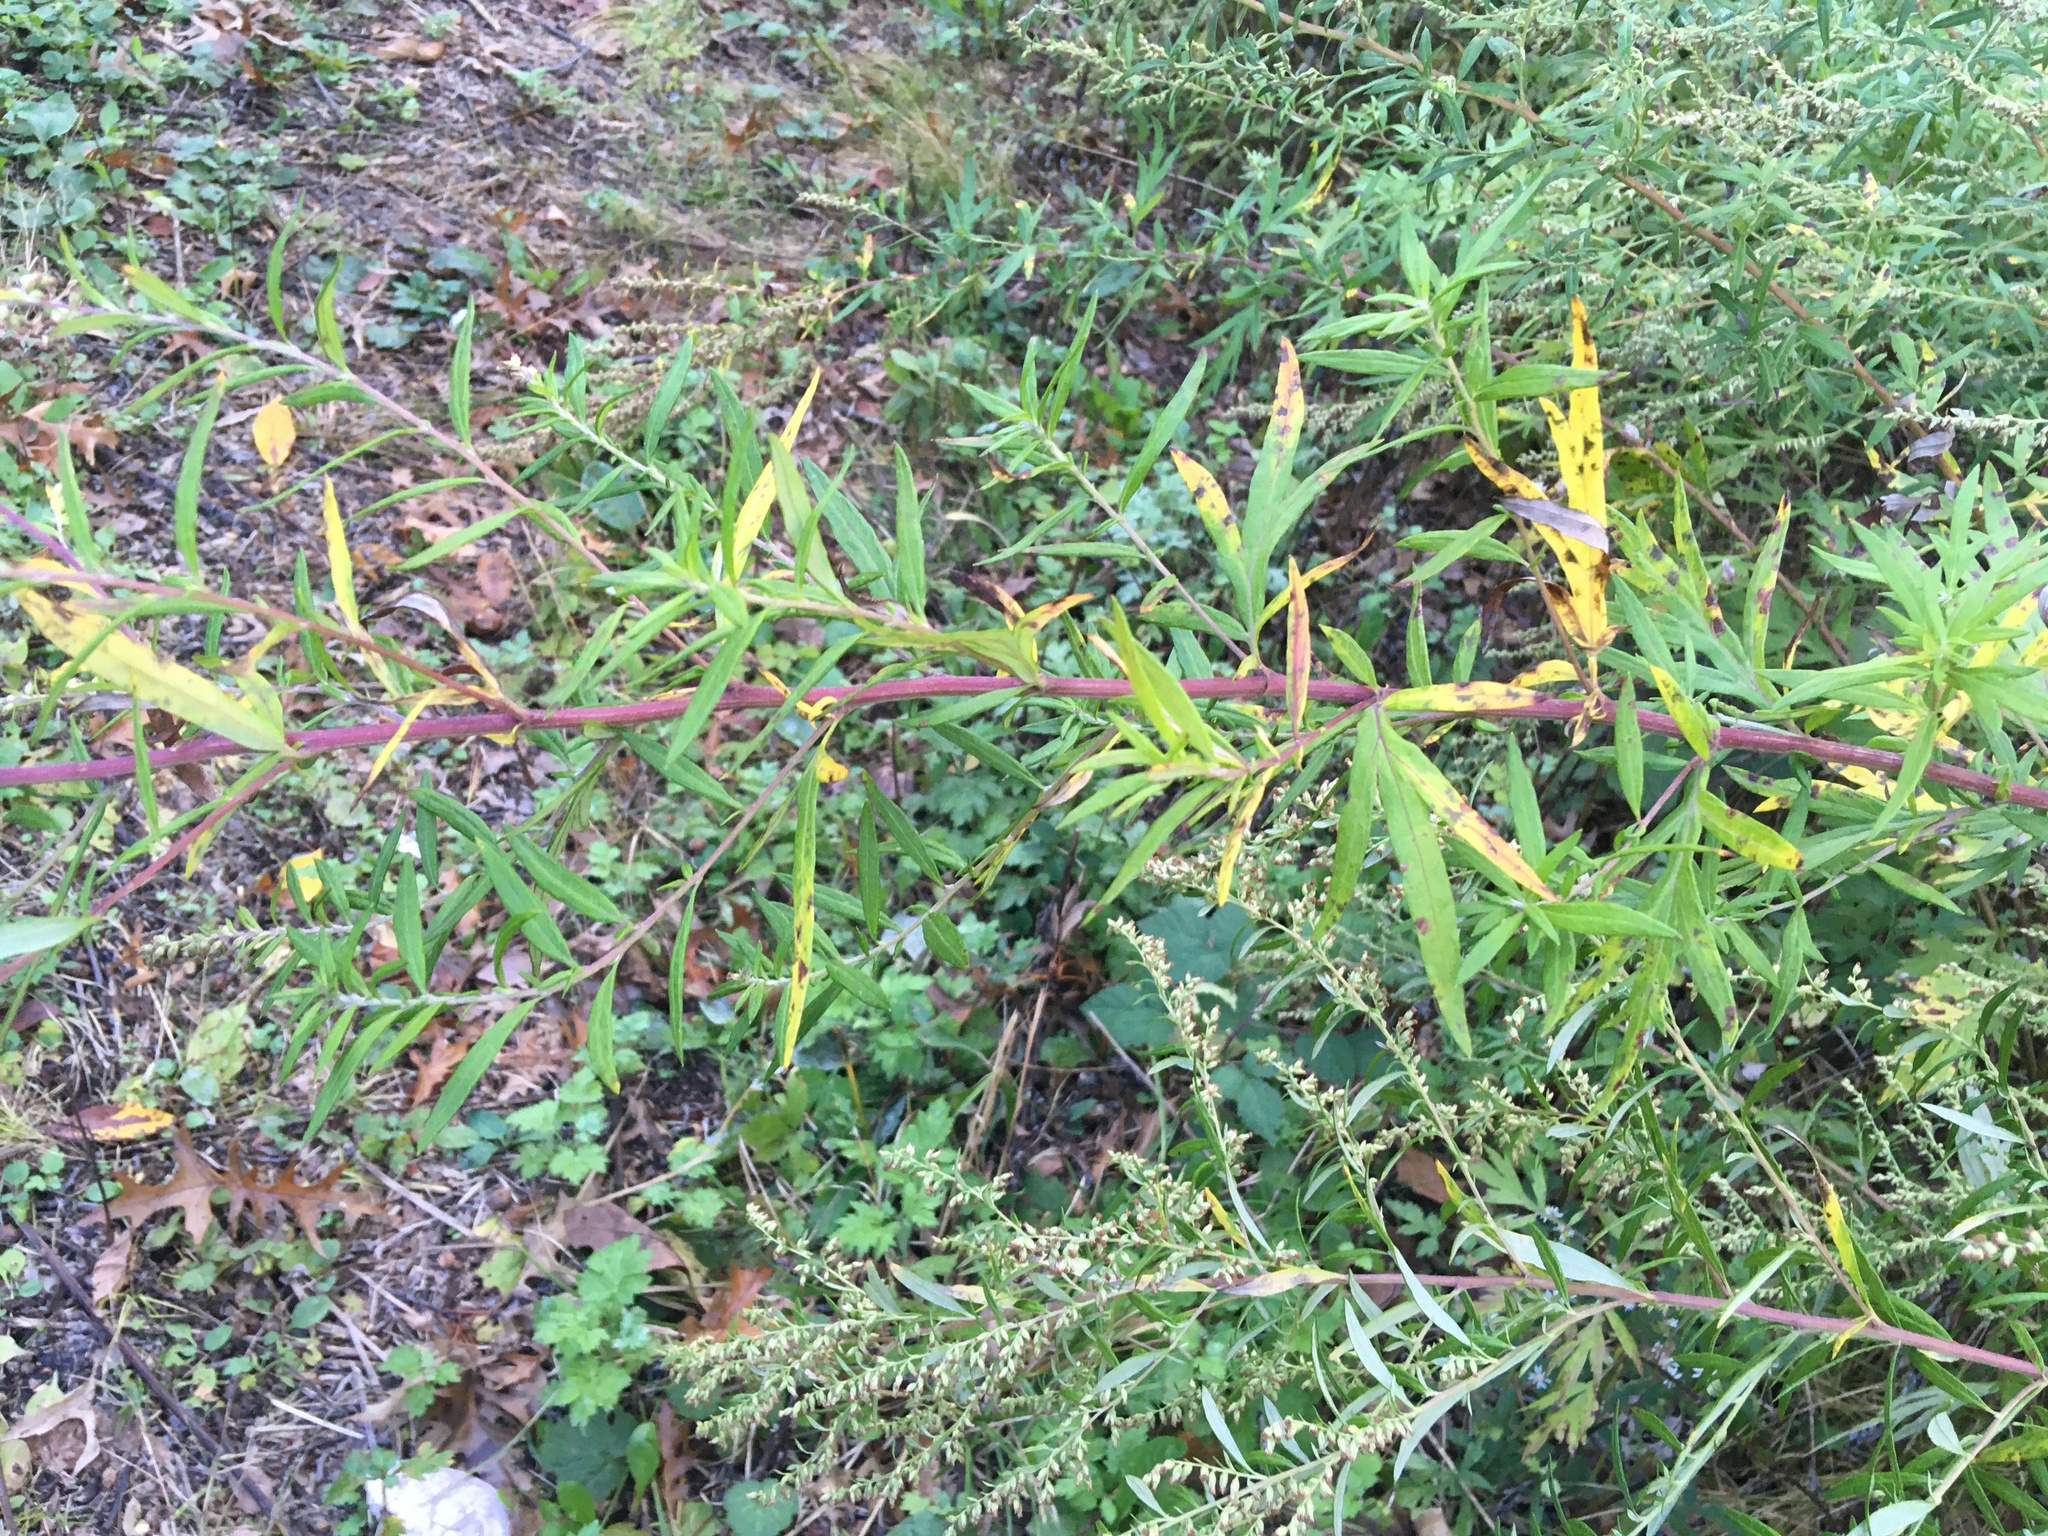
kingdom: Plantae
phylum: Tracheophyta
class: Magnoliopsida
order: Asterales
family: Asteraceae
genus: Artemisia
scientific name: Artemisia vulgaris
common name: Mugwort
